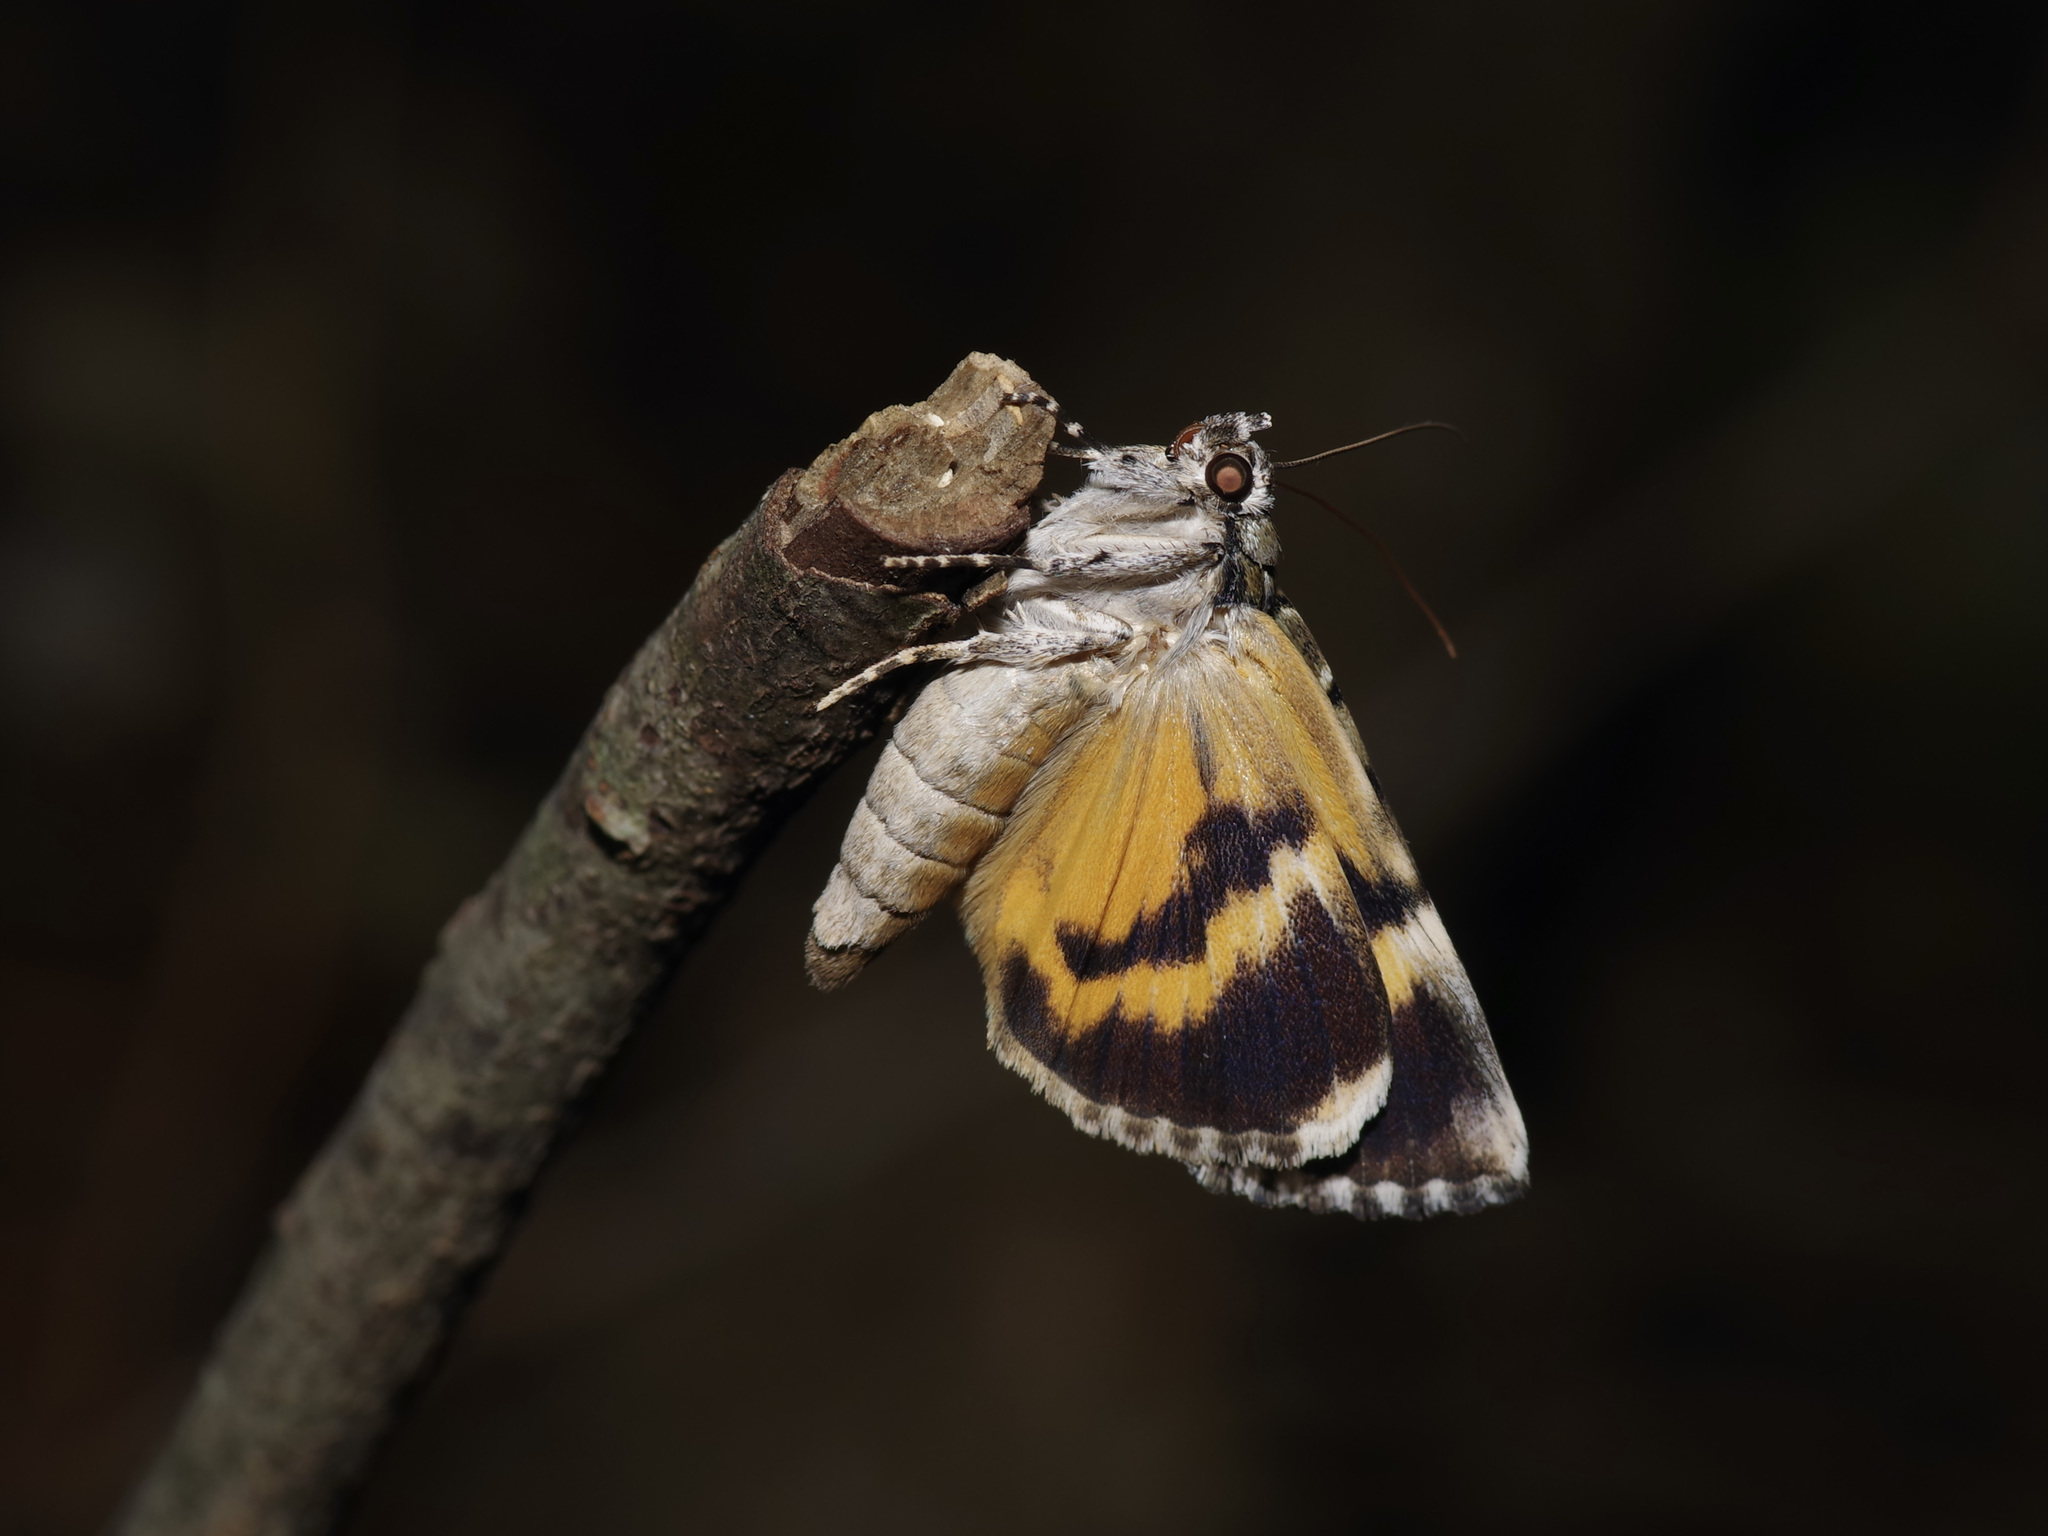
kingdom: Animalia
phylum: Arthropoda
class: Insecta
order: Lepidoptera
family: Erebidae
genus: Catocala
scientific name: Catocala micronympha
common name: Little nymph underwing
